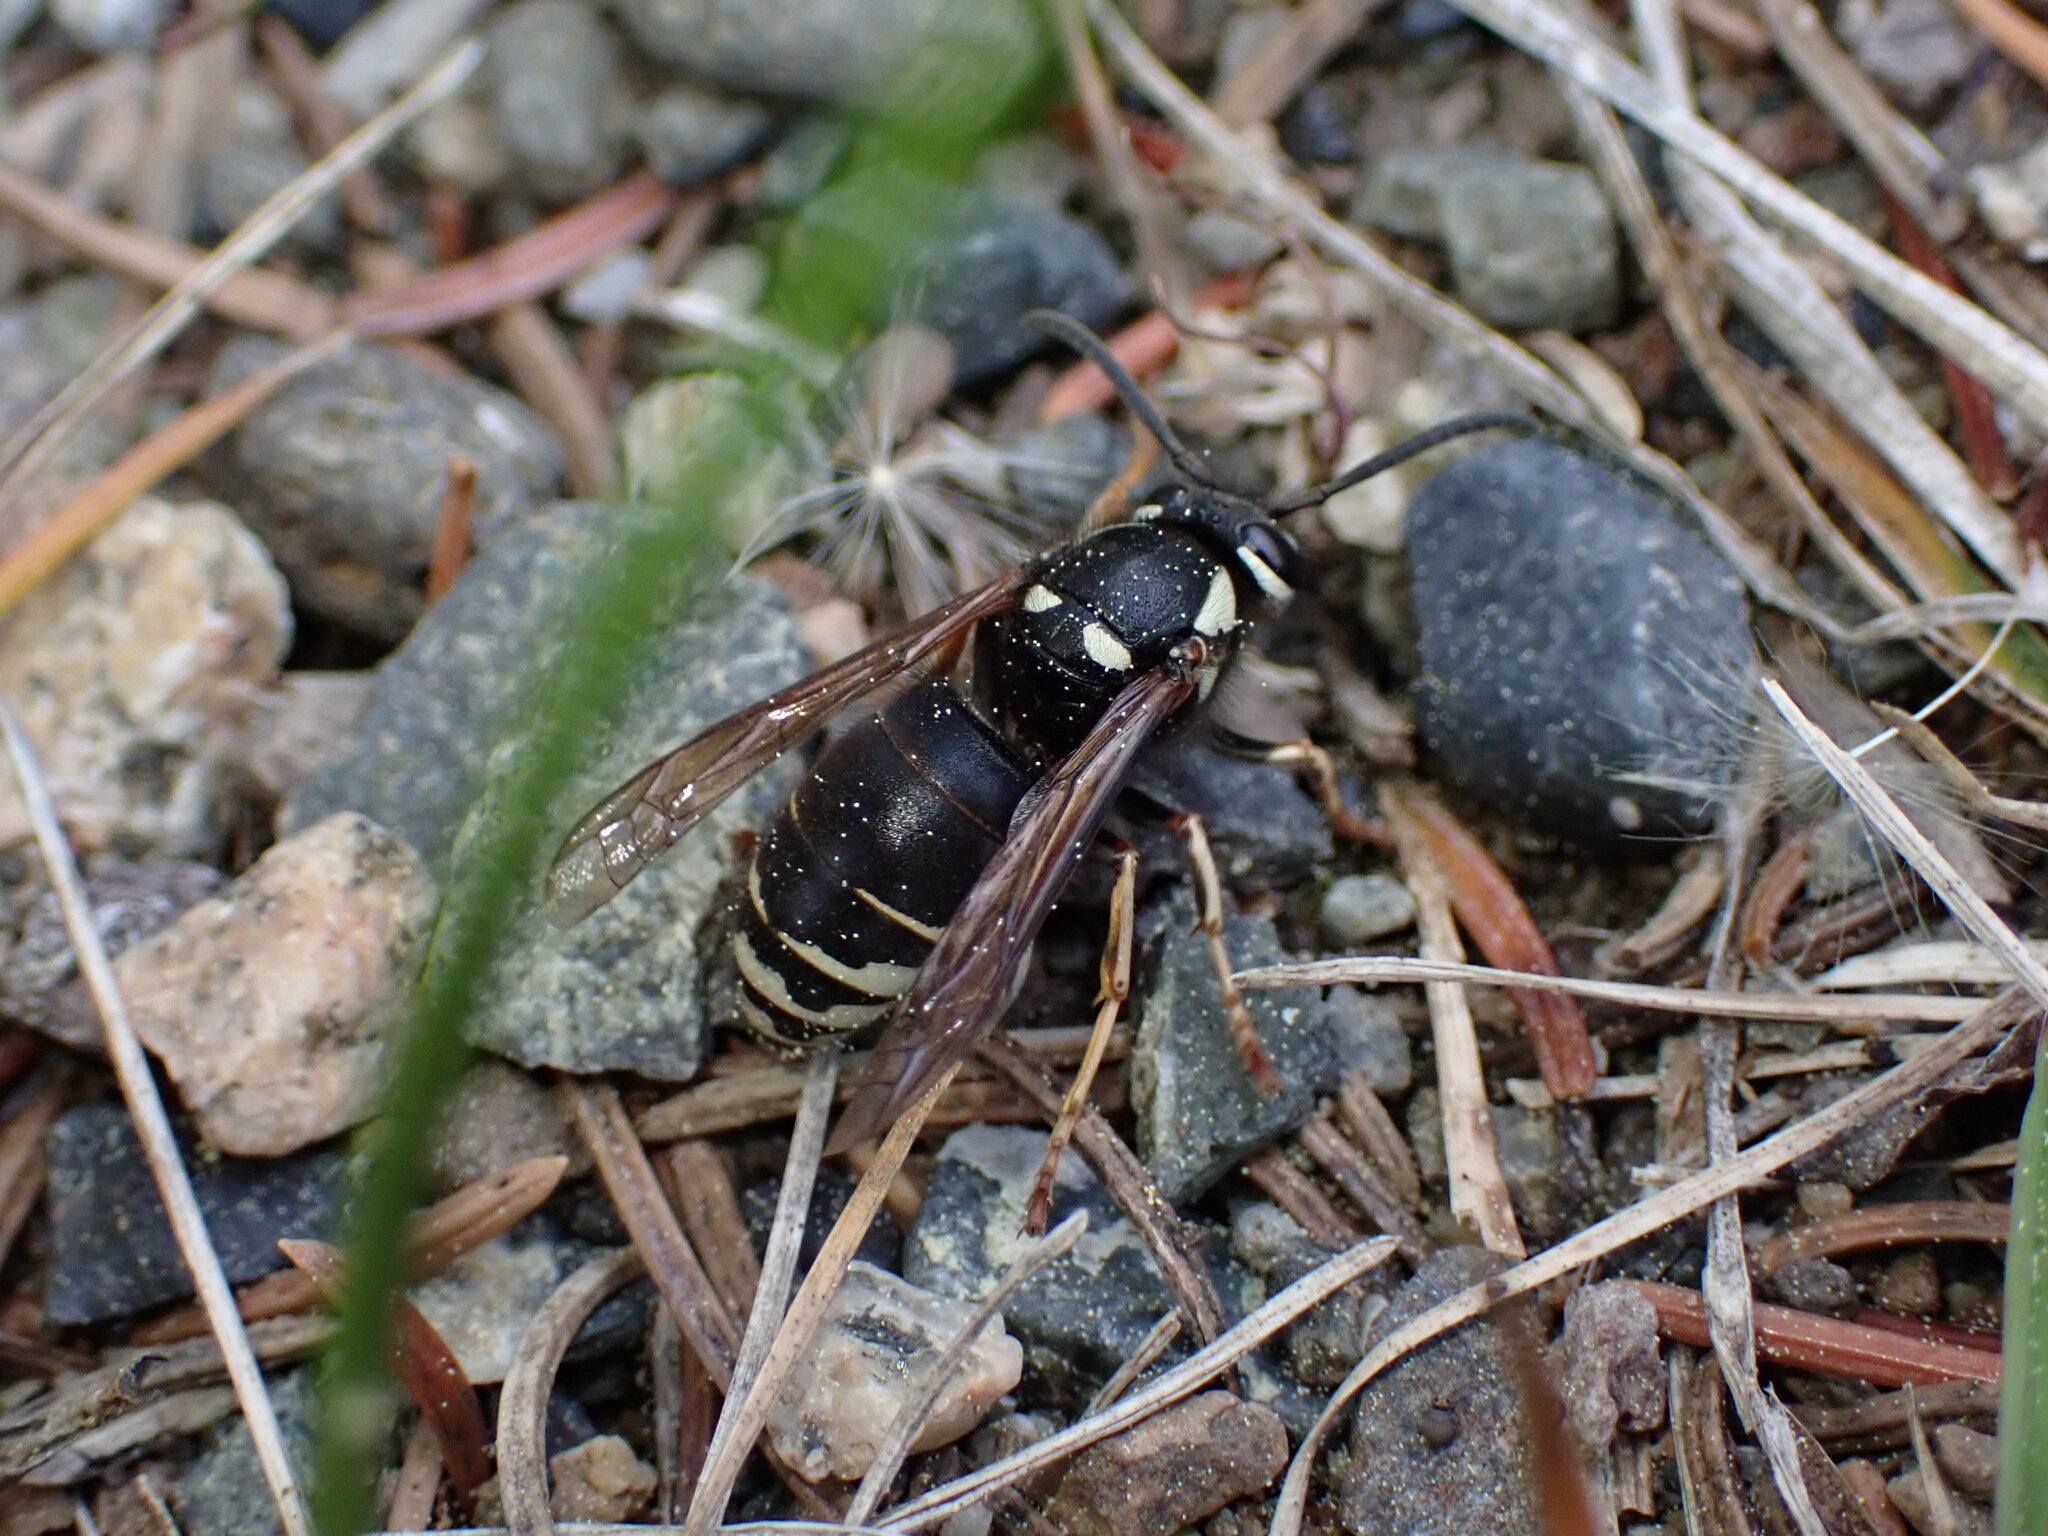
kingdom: Animalia
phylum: Arthropoda
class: Insecta
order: Hymenoptera
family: Vespidae
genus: Vespula
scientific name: Vespula consobrina
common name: Blackjacket
